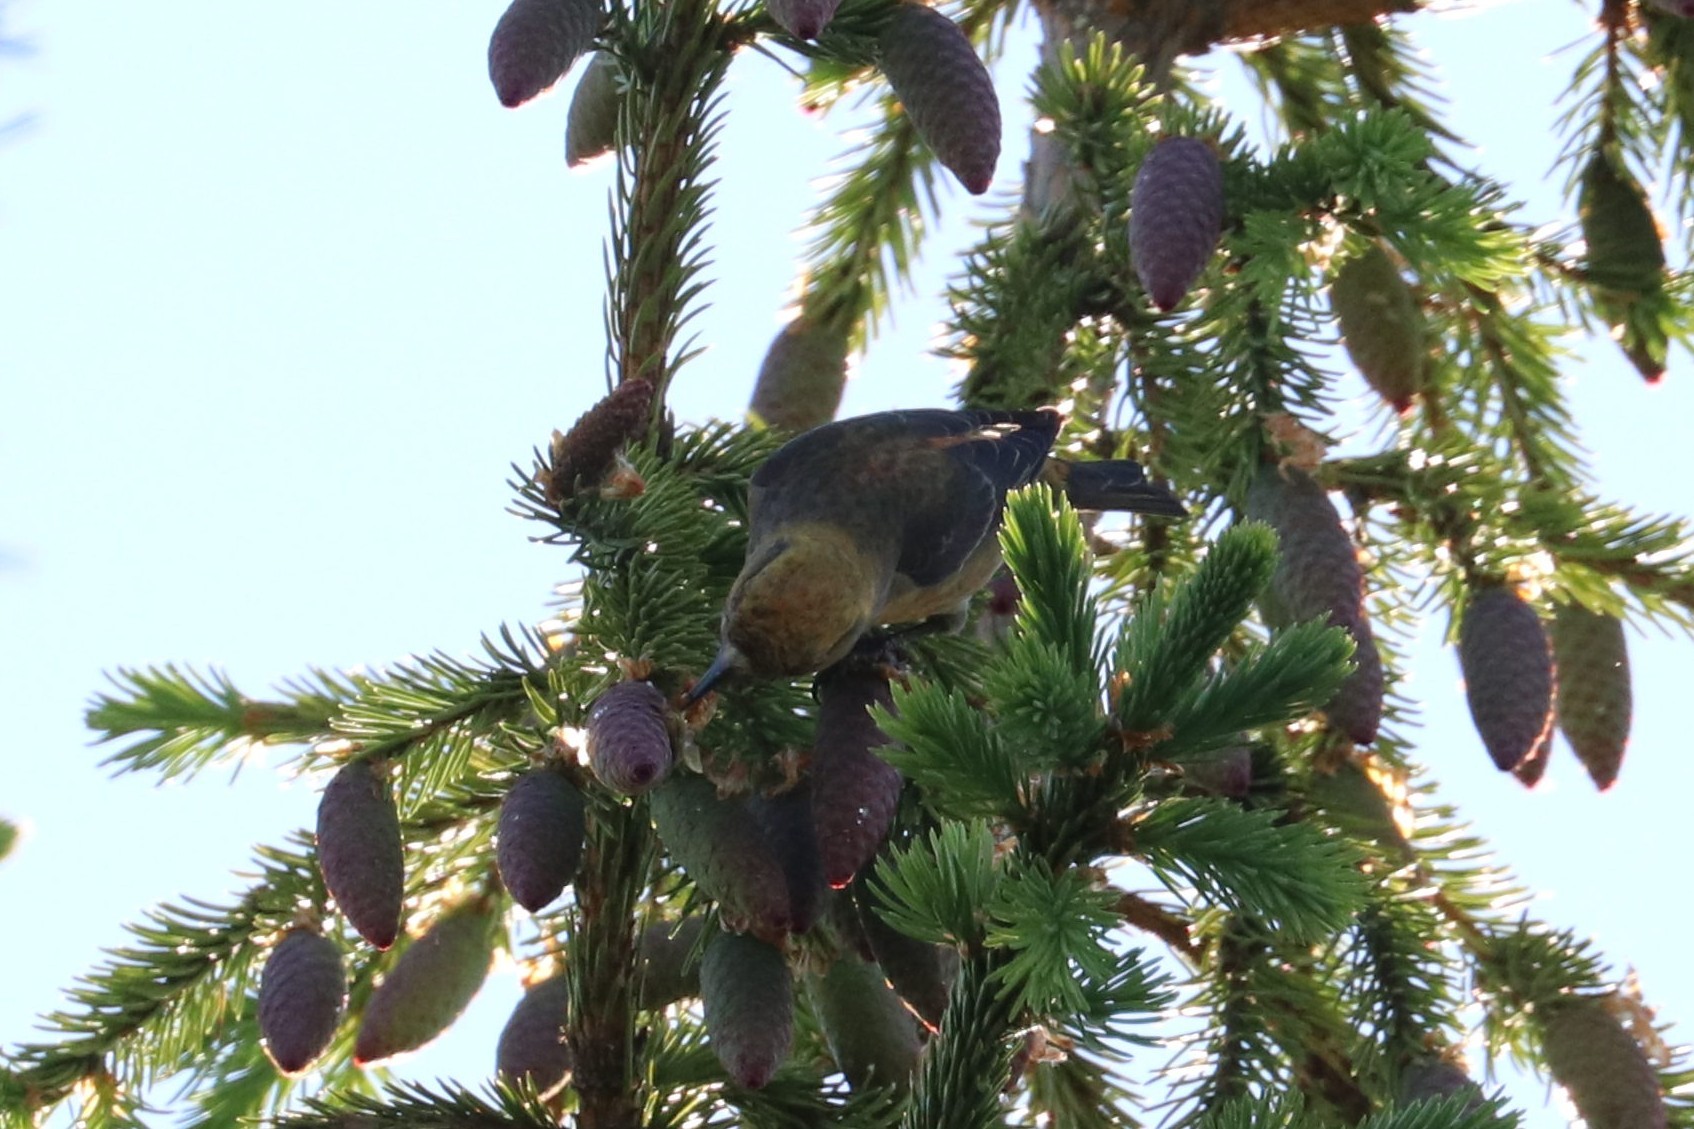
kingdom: Animalia
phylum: Chordata
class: Aves
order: Passeriformes
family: Fringillidae
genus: Loxia
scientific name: Loxia curvirostra
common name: Red crossbill
